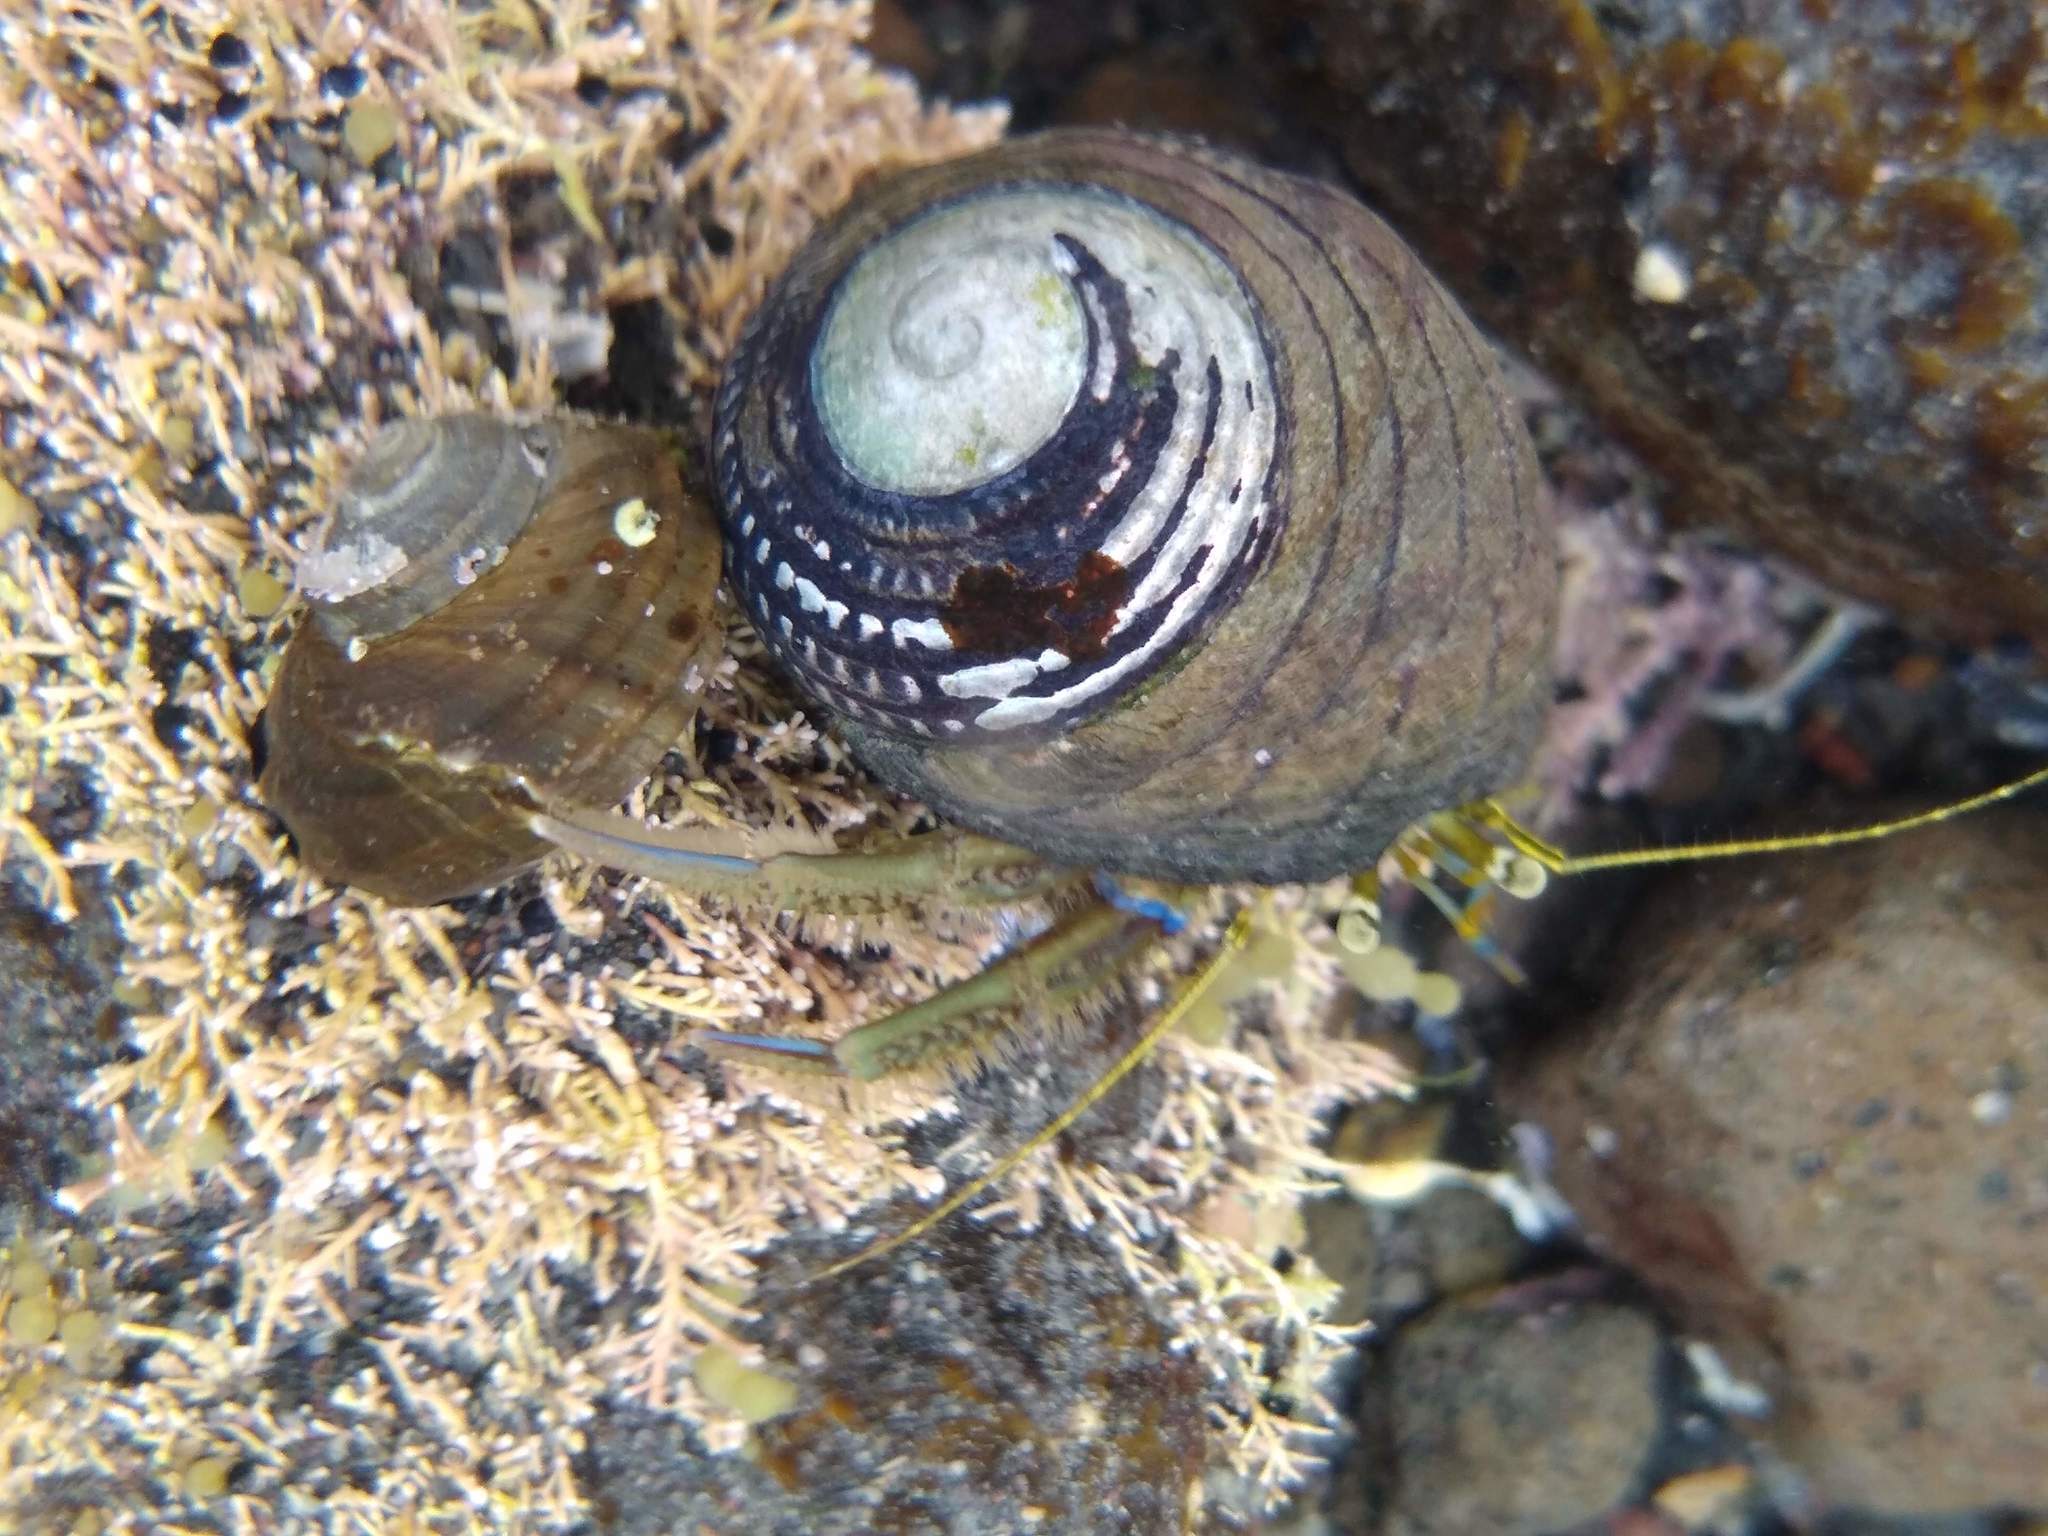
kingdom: Animalia
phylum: Arthropoda
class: Malacostraca
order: Decapoda
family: Paguridae
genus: Pagurus
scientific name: Pagurus novizealandiae
